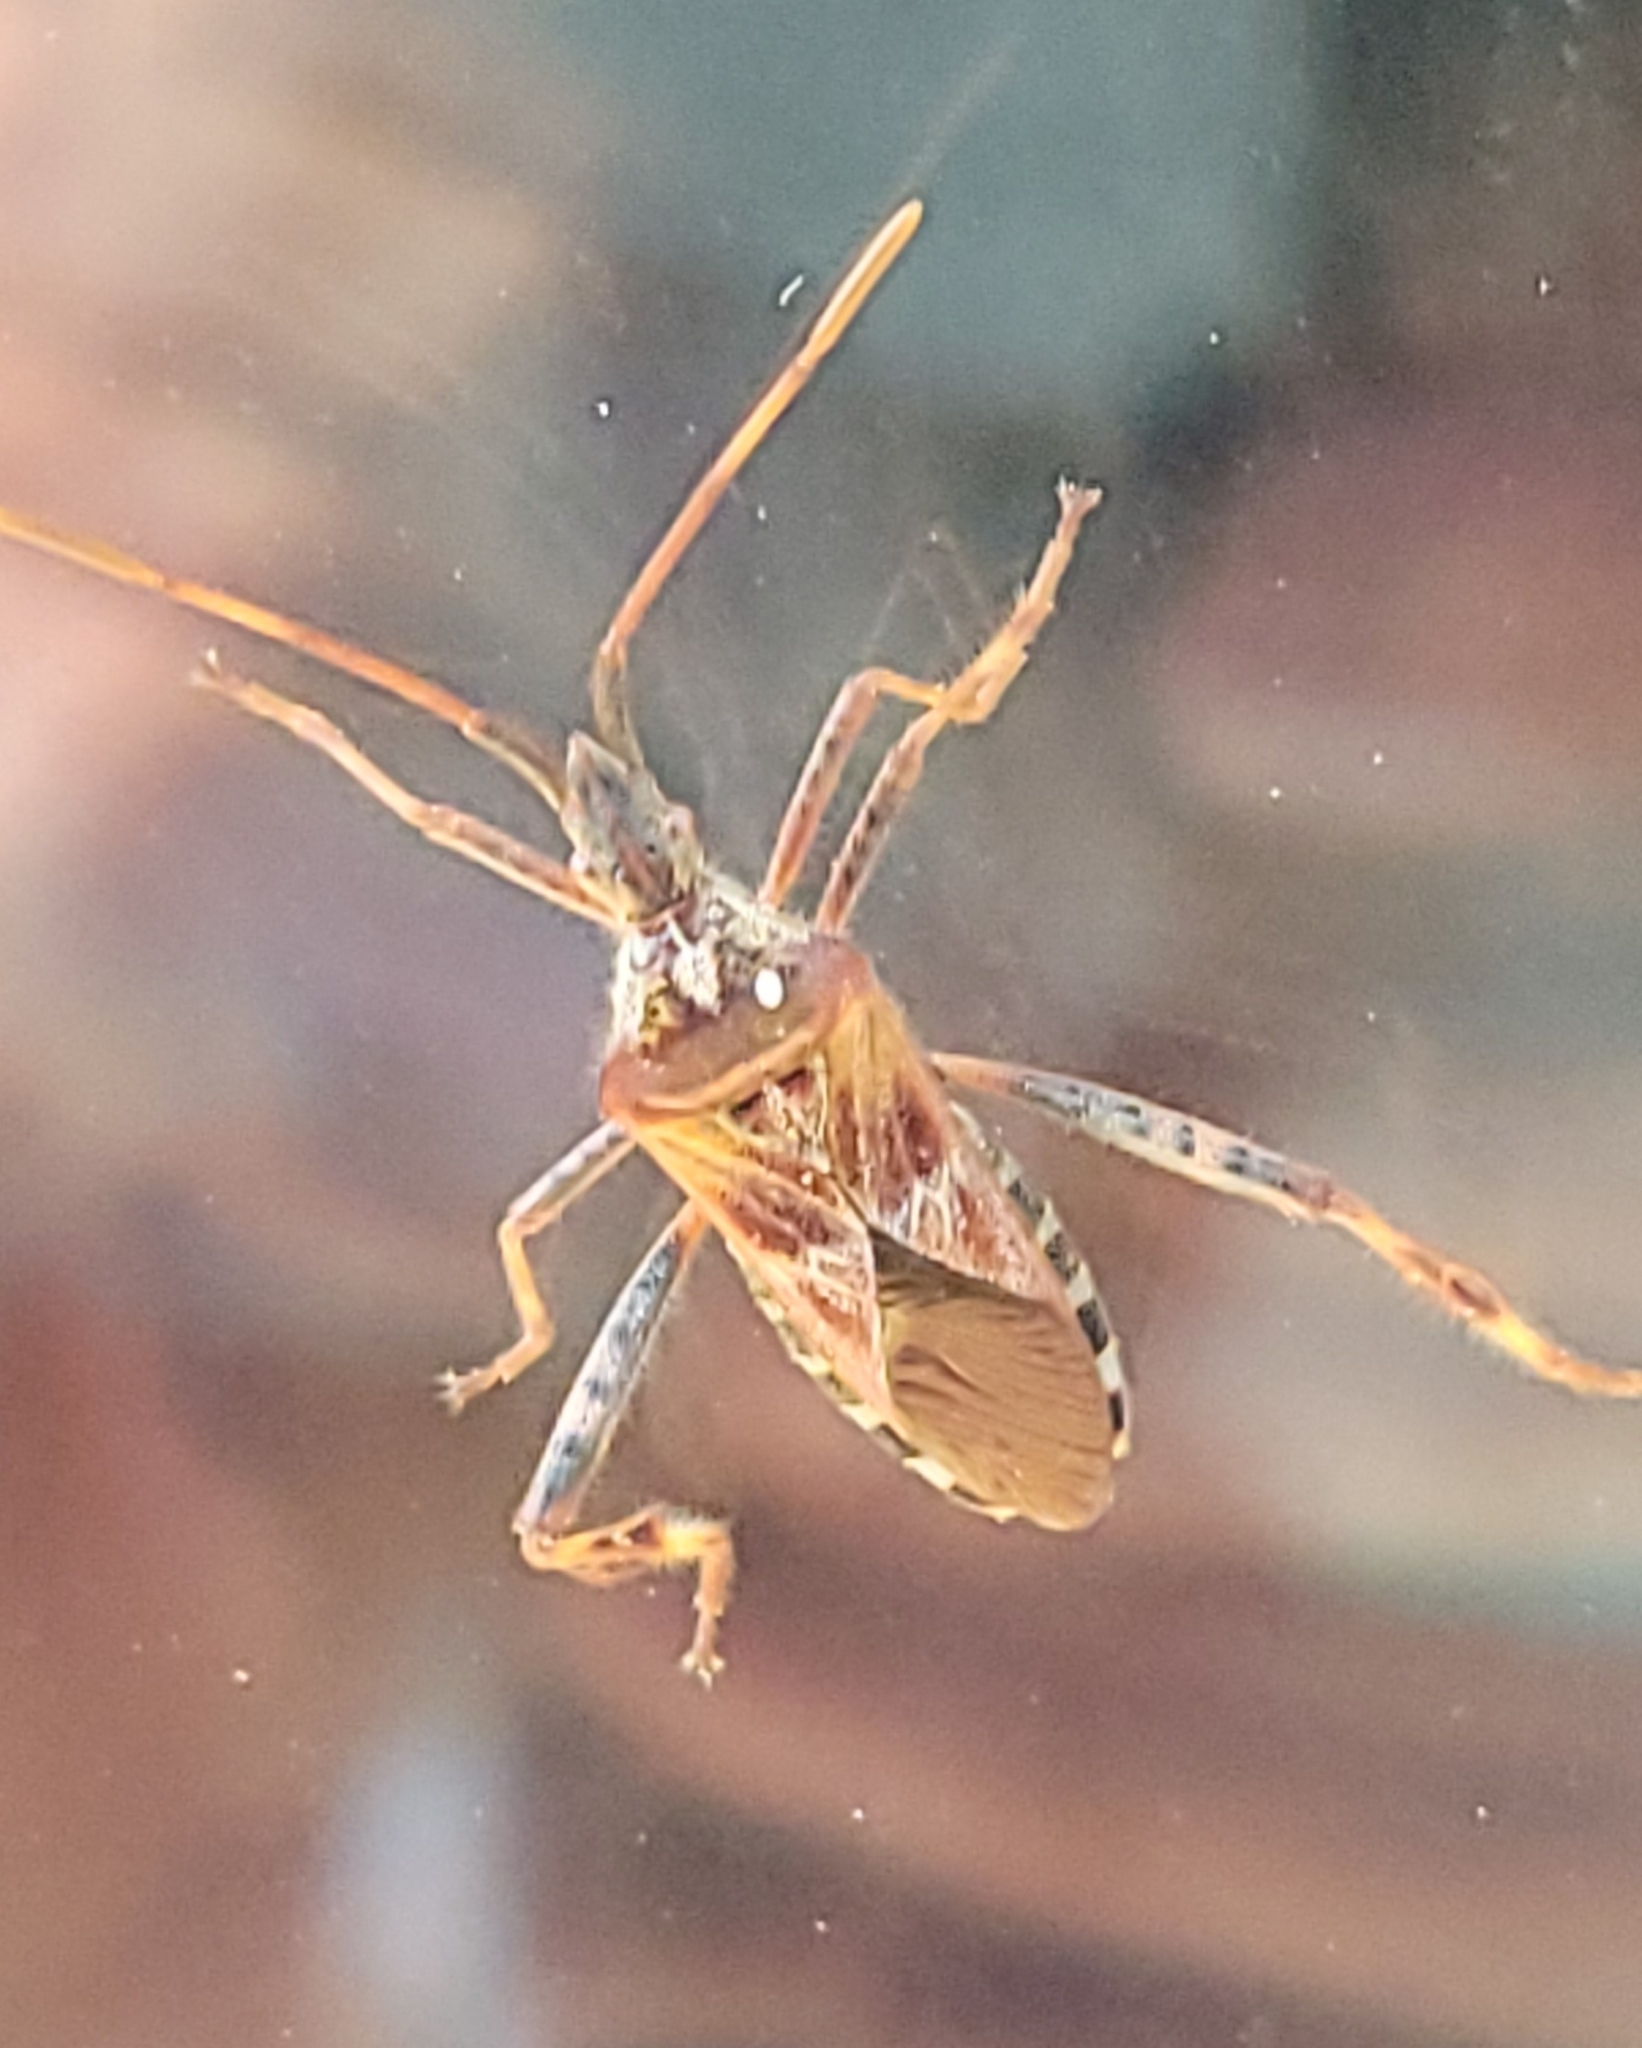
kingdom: Animalia
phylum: Arthropoda
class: Insecta
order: Hemiptera
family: Coreidae
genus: Leptoglossus
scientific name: Leptoglossus occidentalis
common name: Western conifer-seed bug
